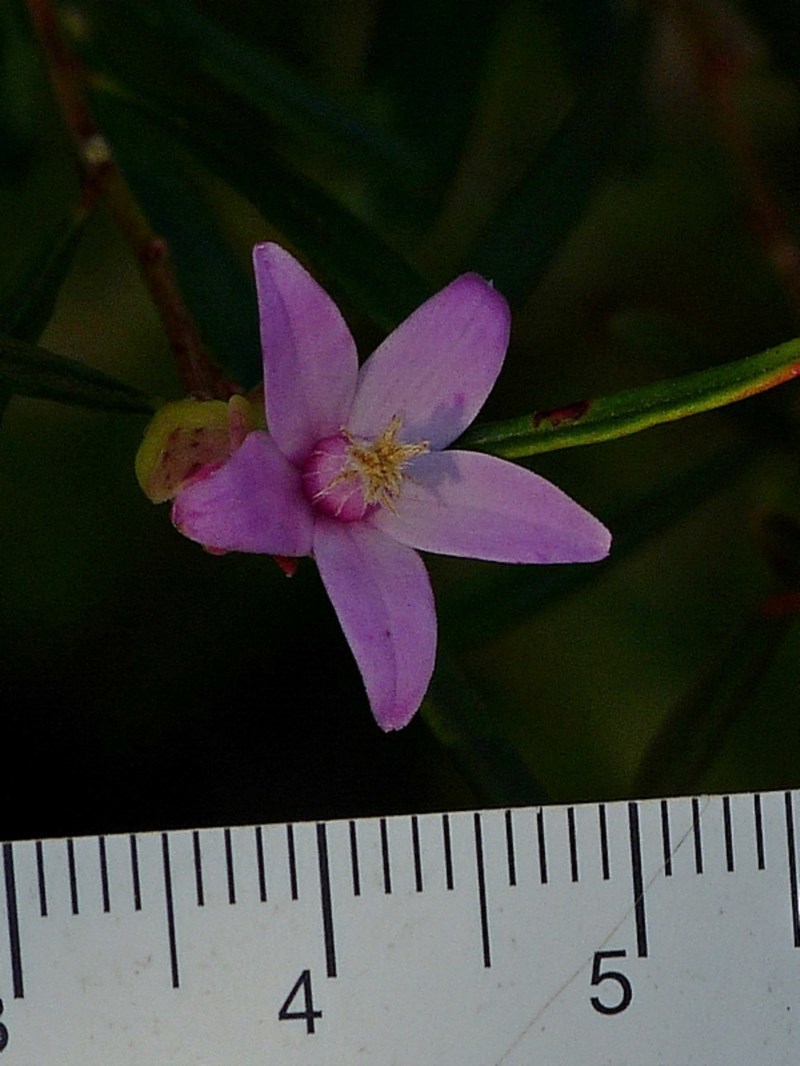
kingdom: Plantae
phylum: Tracheophyta
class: Magnoliopsida
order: Sapindales
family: Rutaceae
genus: Crowea
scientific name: Crowea exalata
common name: Small crowea
